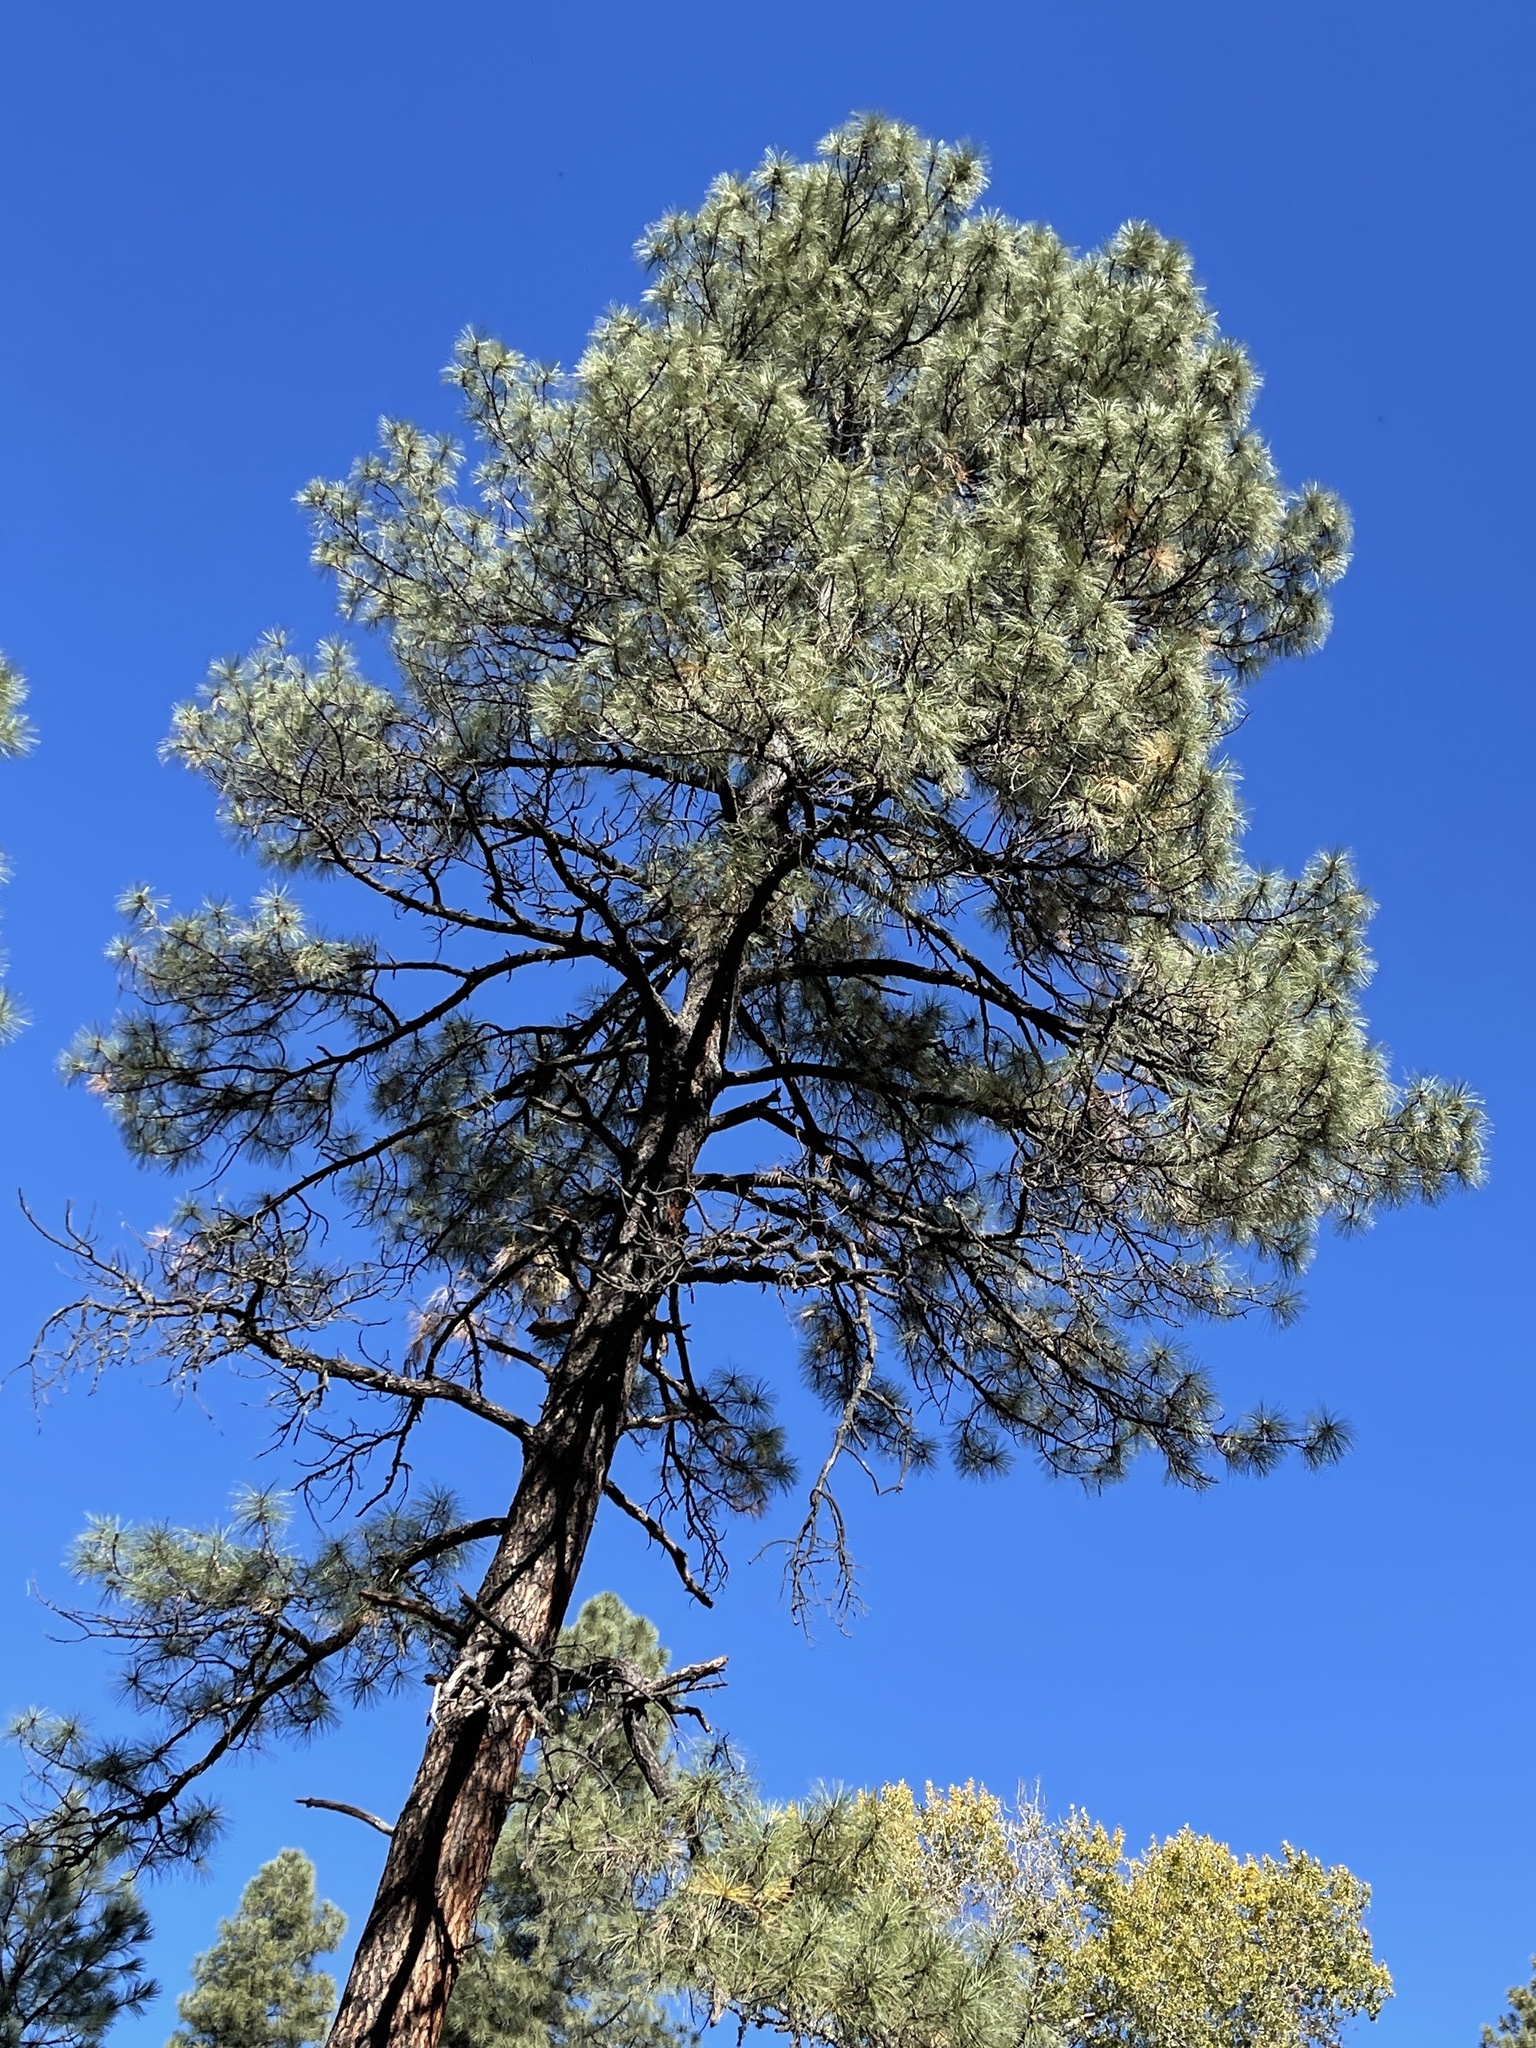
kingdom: Plantae
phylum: Tracheophyta
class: Pinopsida
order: Pinales
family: Pinaceae
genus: Pinus
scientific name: Pinus ponderosa
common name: Western yellow-pine
